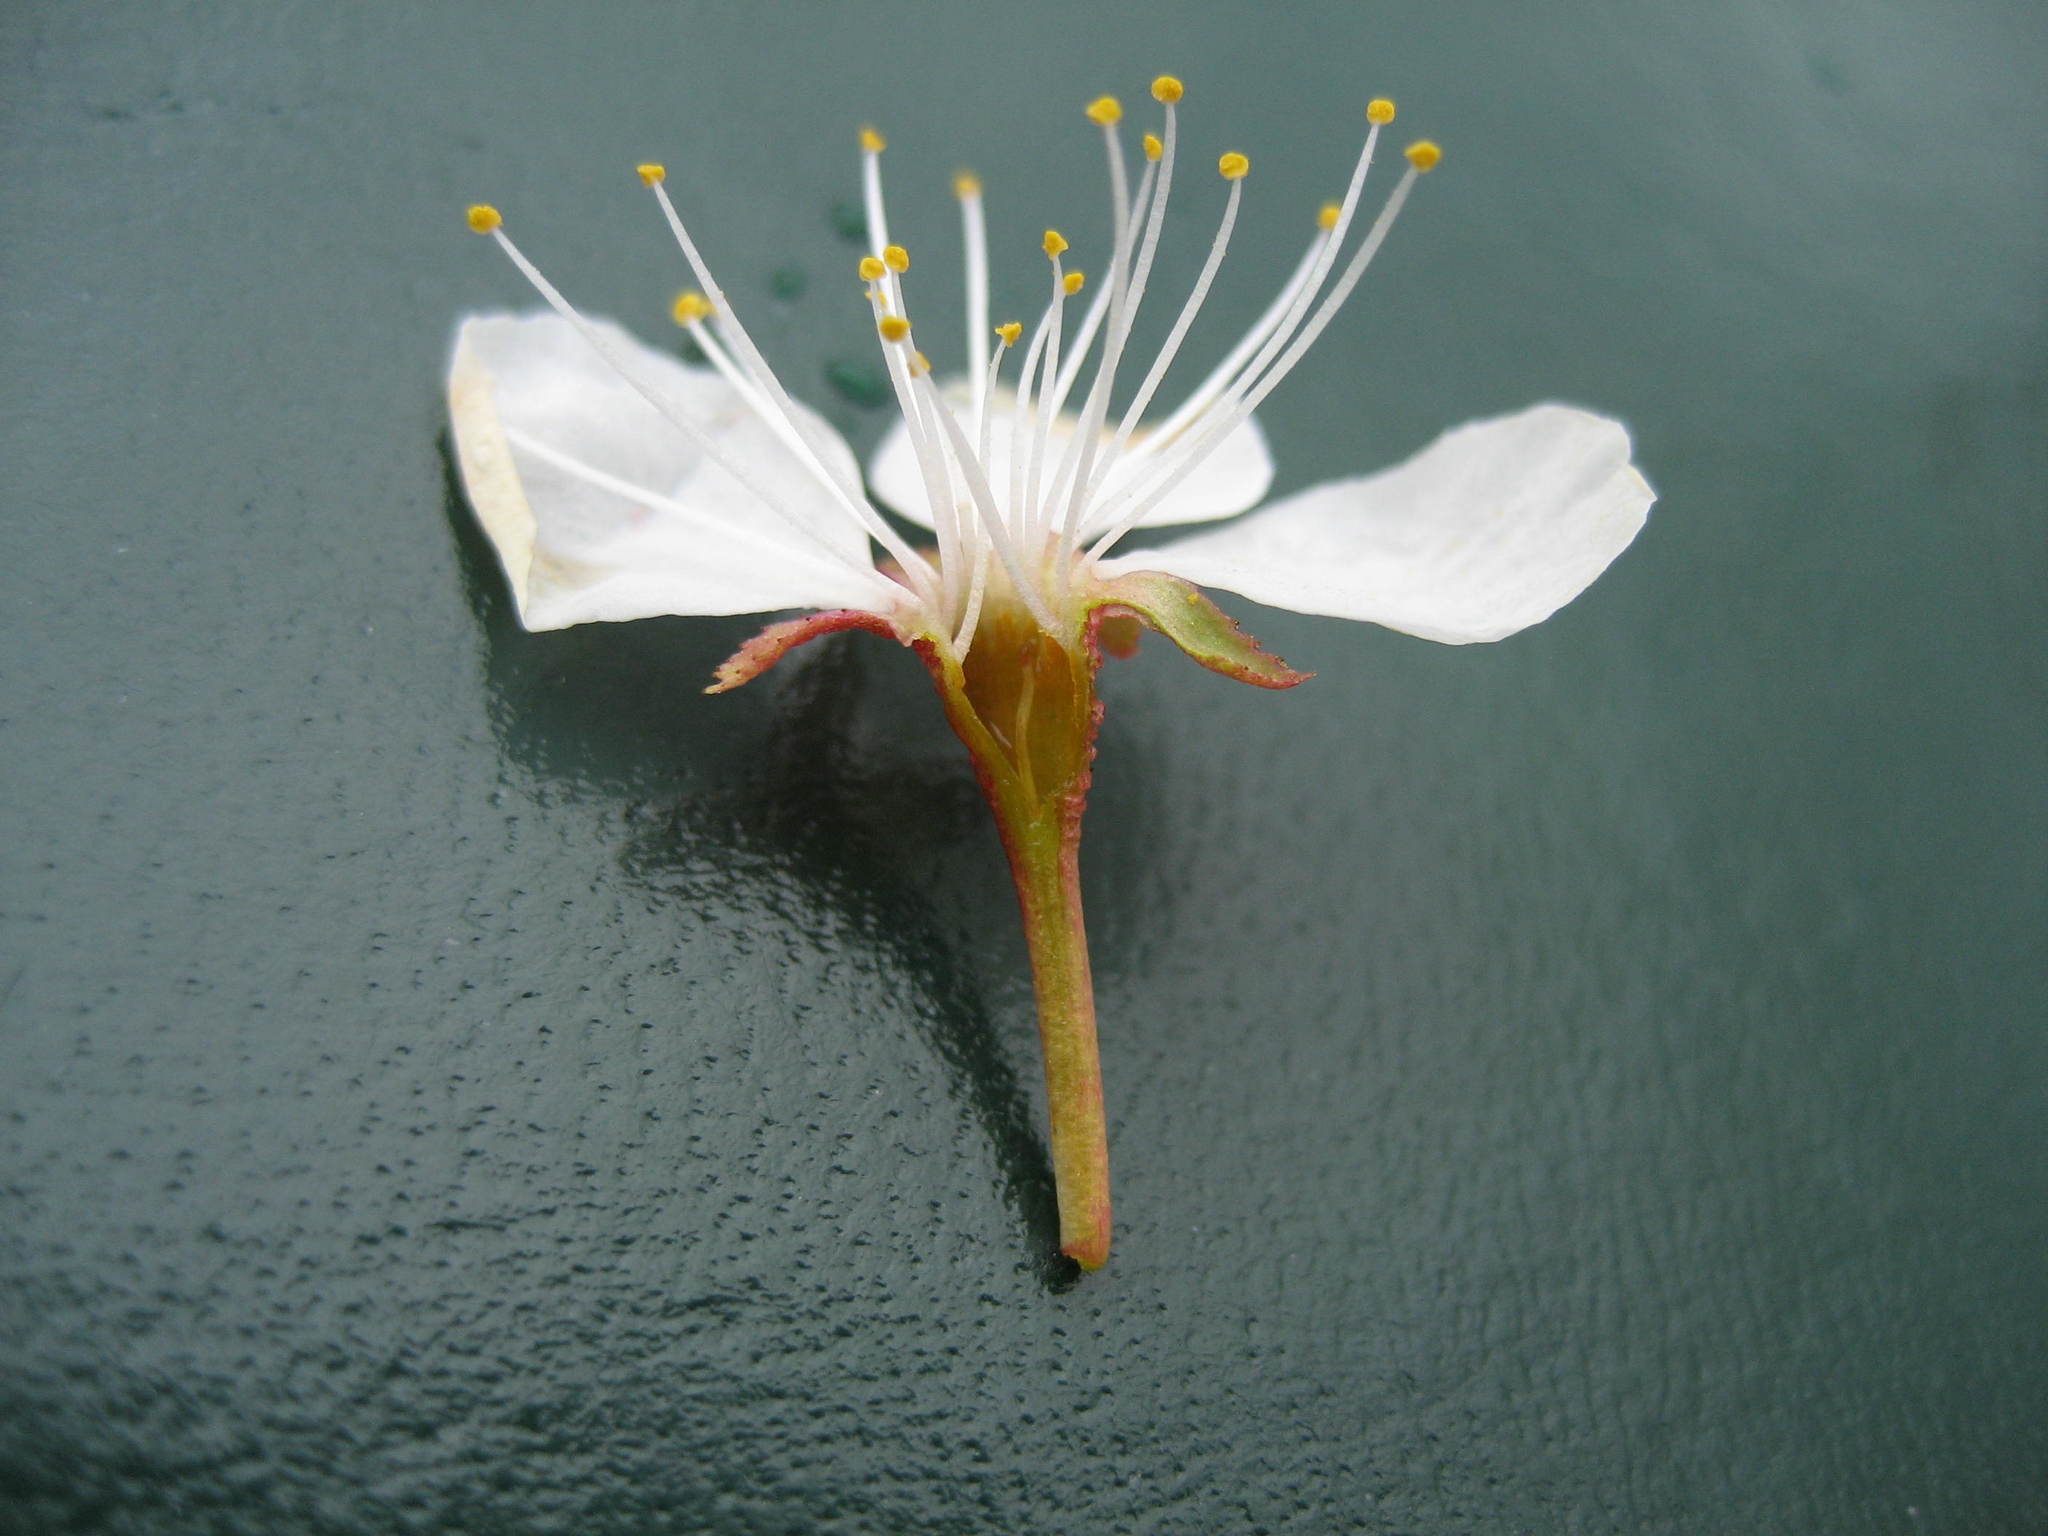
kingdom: Plantae
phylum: Tracheophyta
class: Magnoliopsida
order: Rosales
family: Rosaceae
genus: Prunus
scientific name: Prunus nigra
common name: Black plum
